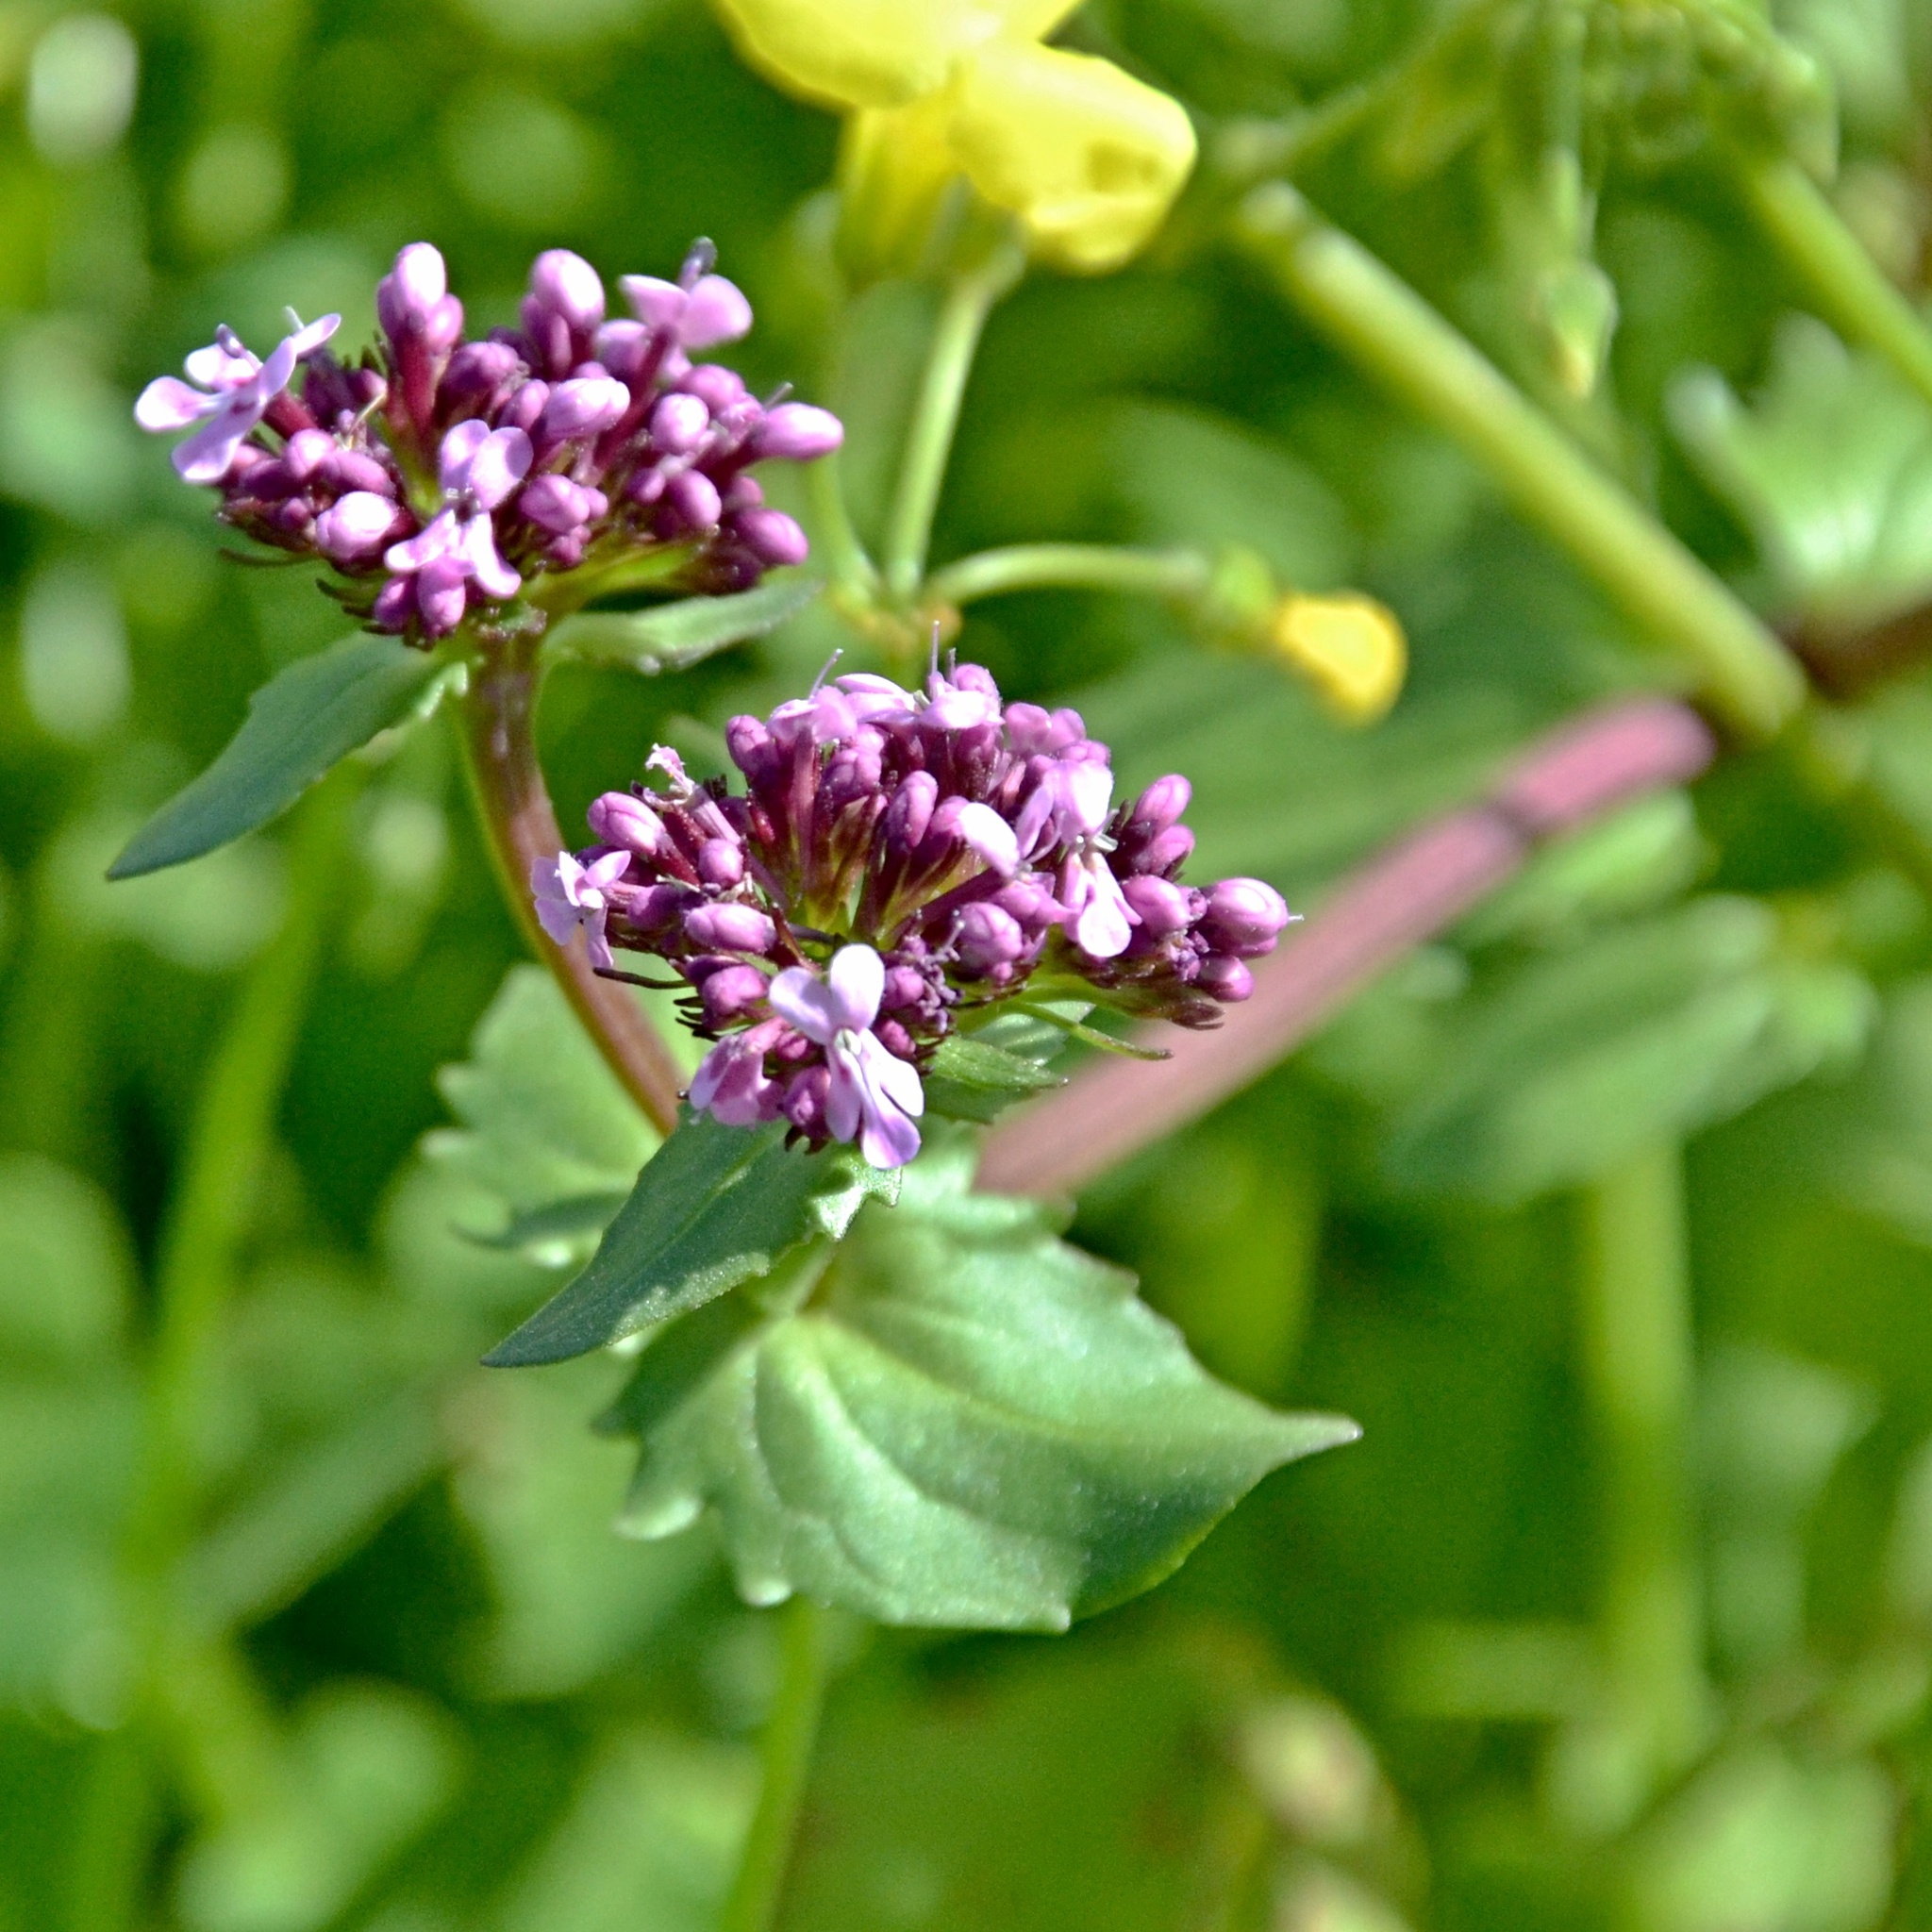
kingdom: Plantae
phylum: Tracheophyta
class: Magnoliopsida
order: Dipsacales
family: Caprifoliaceae
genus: Fedia
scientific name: Fedia graciliflora
